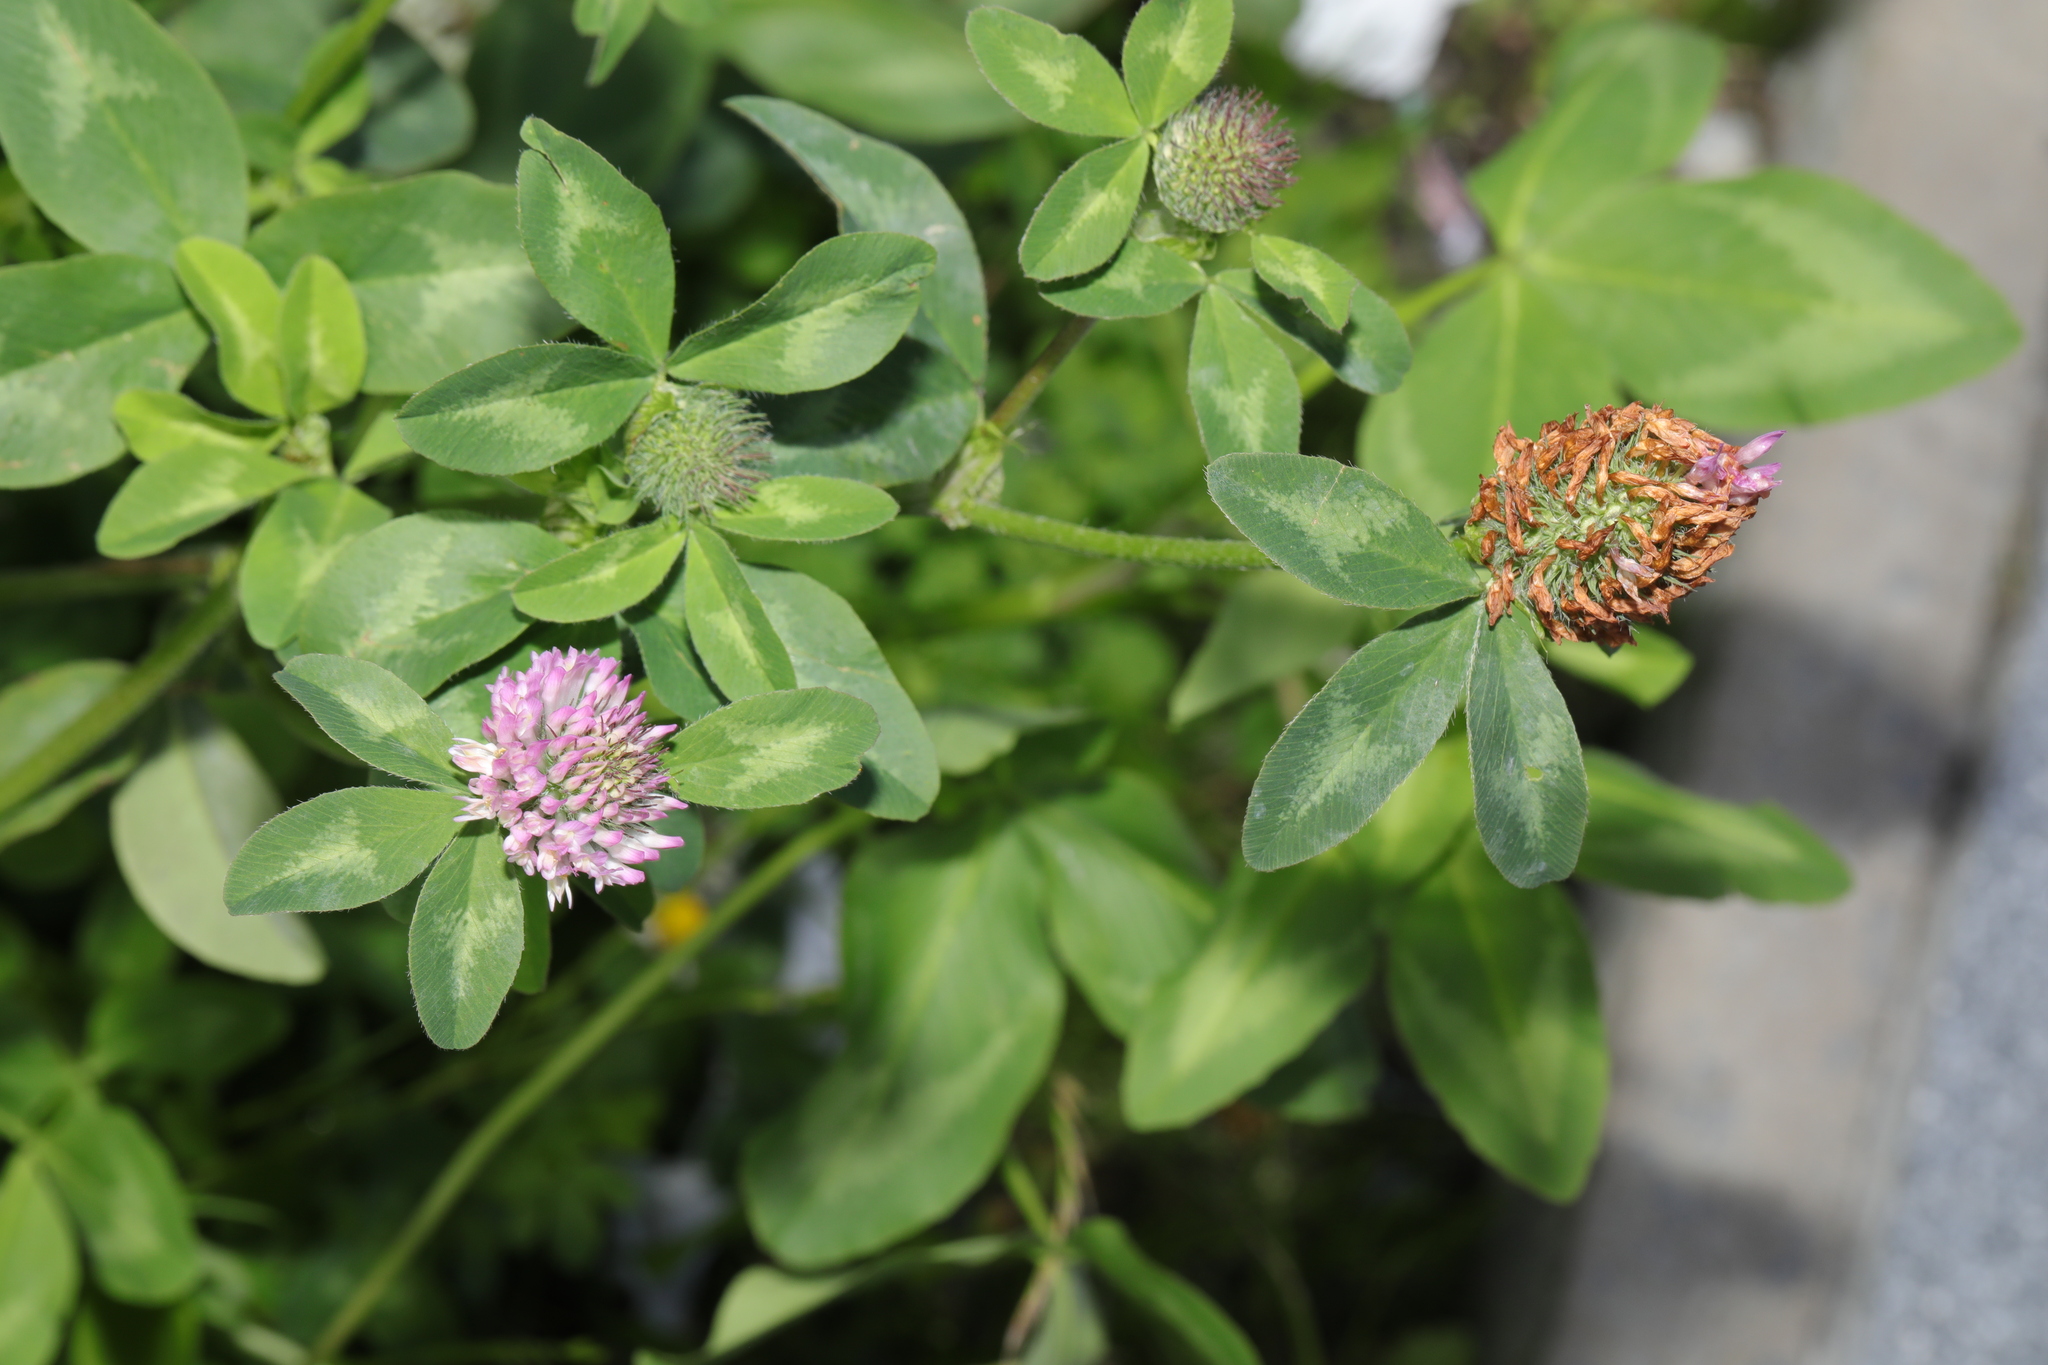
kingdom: Plantae
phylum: Tracheophyta
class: Magnoliopsida
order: Fabales
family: Fabaceae
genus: Trifolium
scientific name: Trifolium pratense
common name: Red clover
